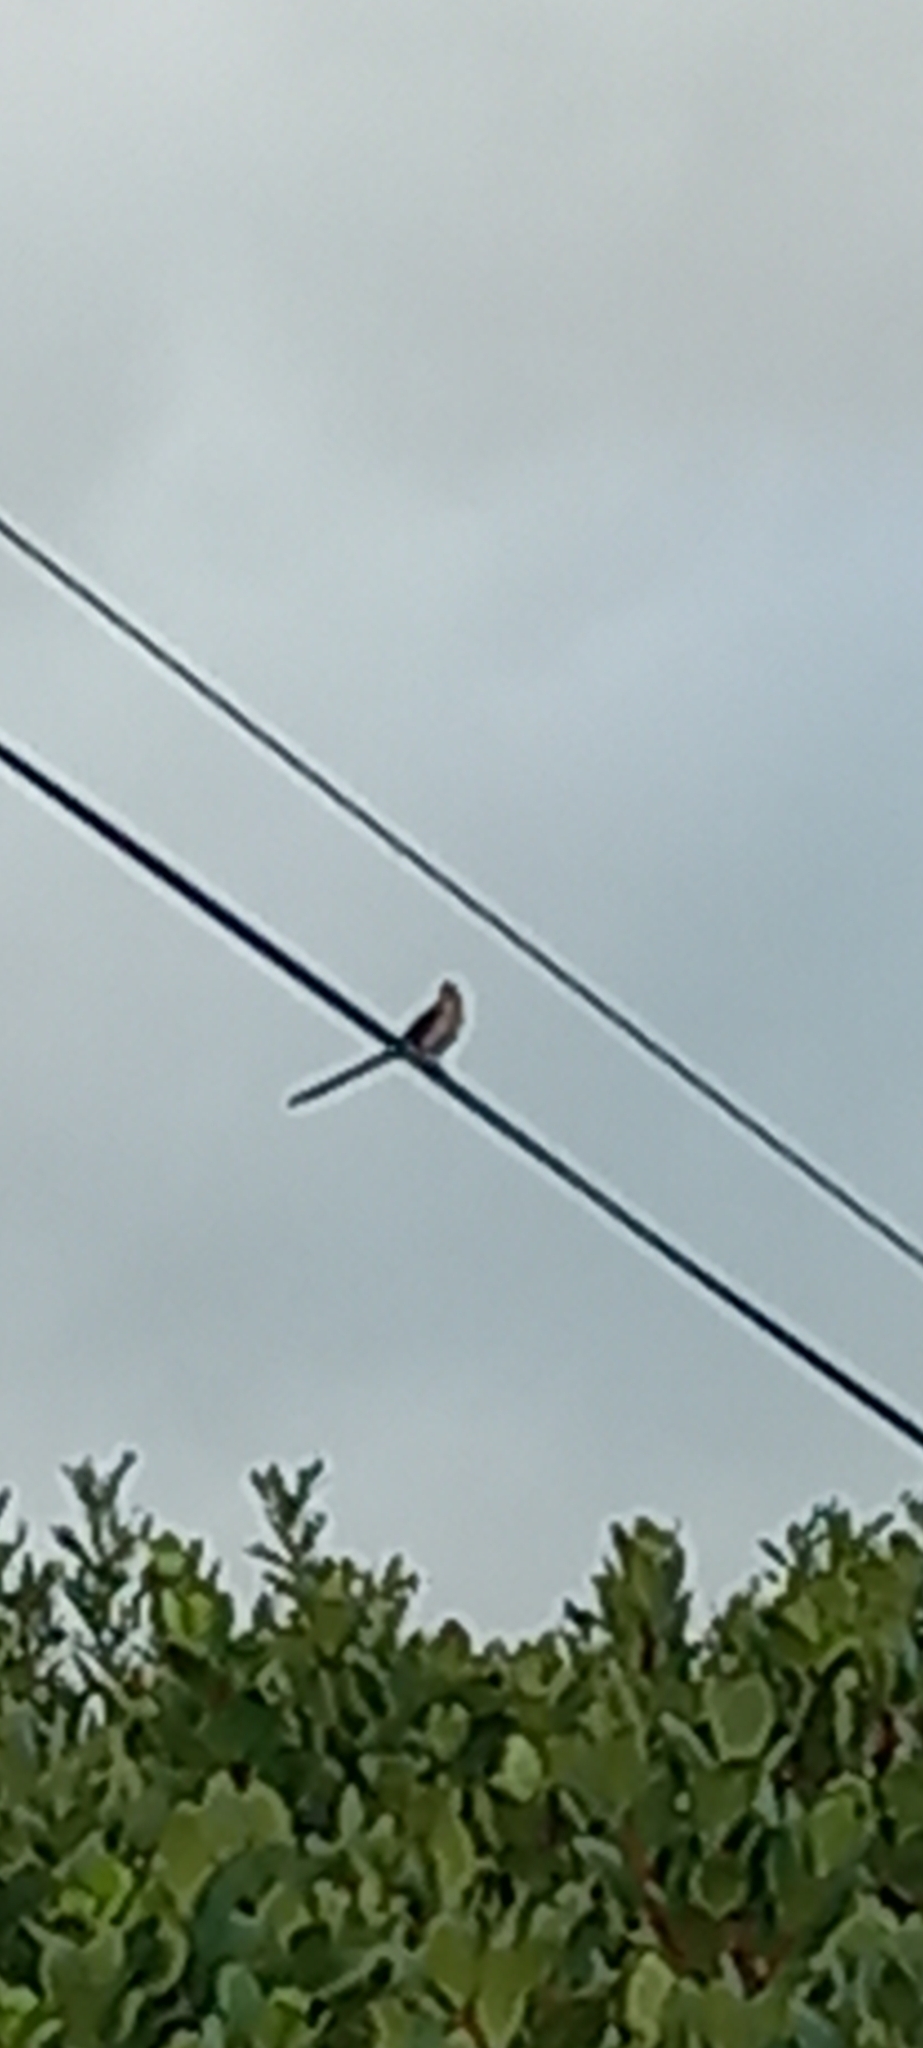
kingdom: Animalia
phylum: Chordata
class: Aves
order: Passeriformes
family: Promeropidae
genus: Promerops
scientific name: Promerops cafer
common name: Cape sugarbird
